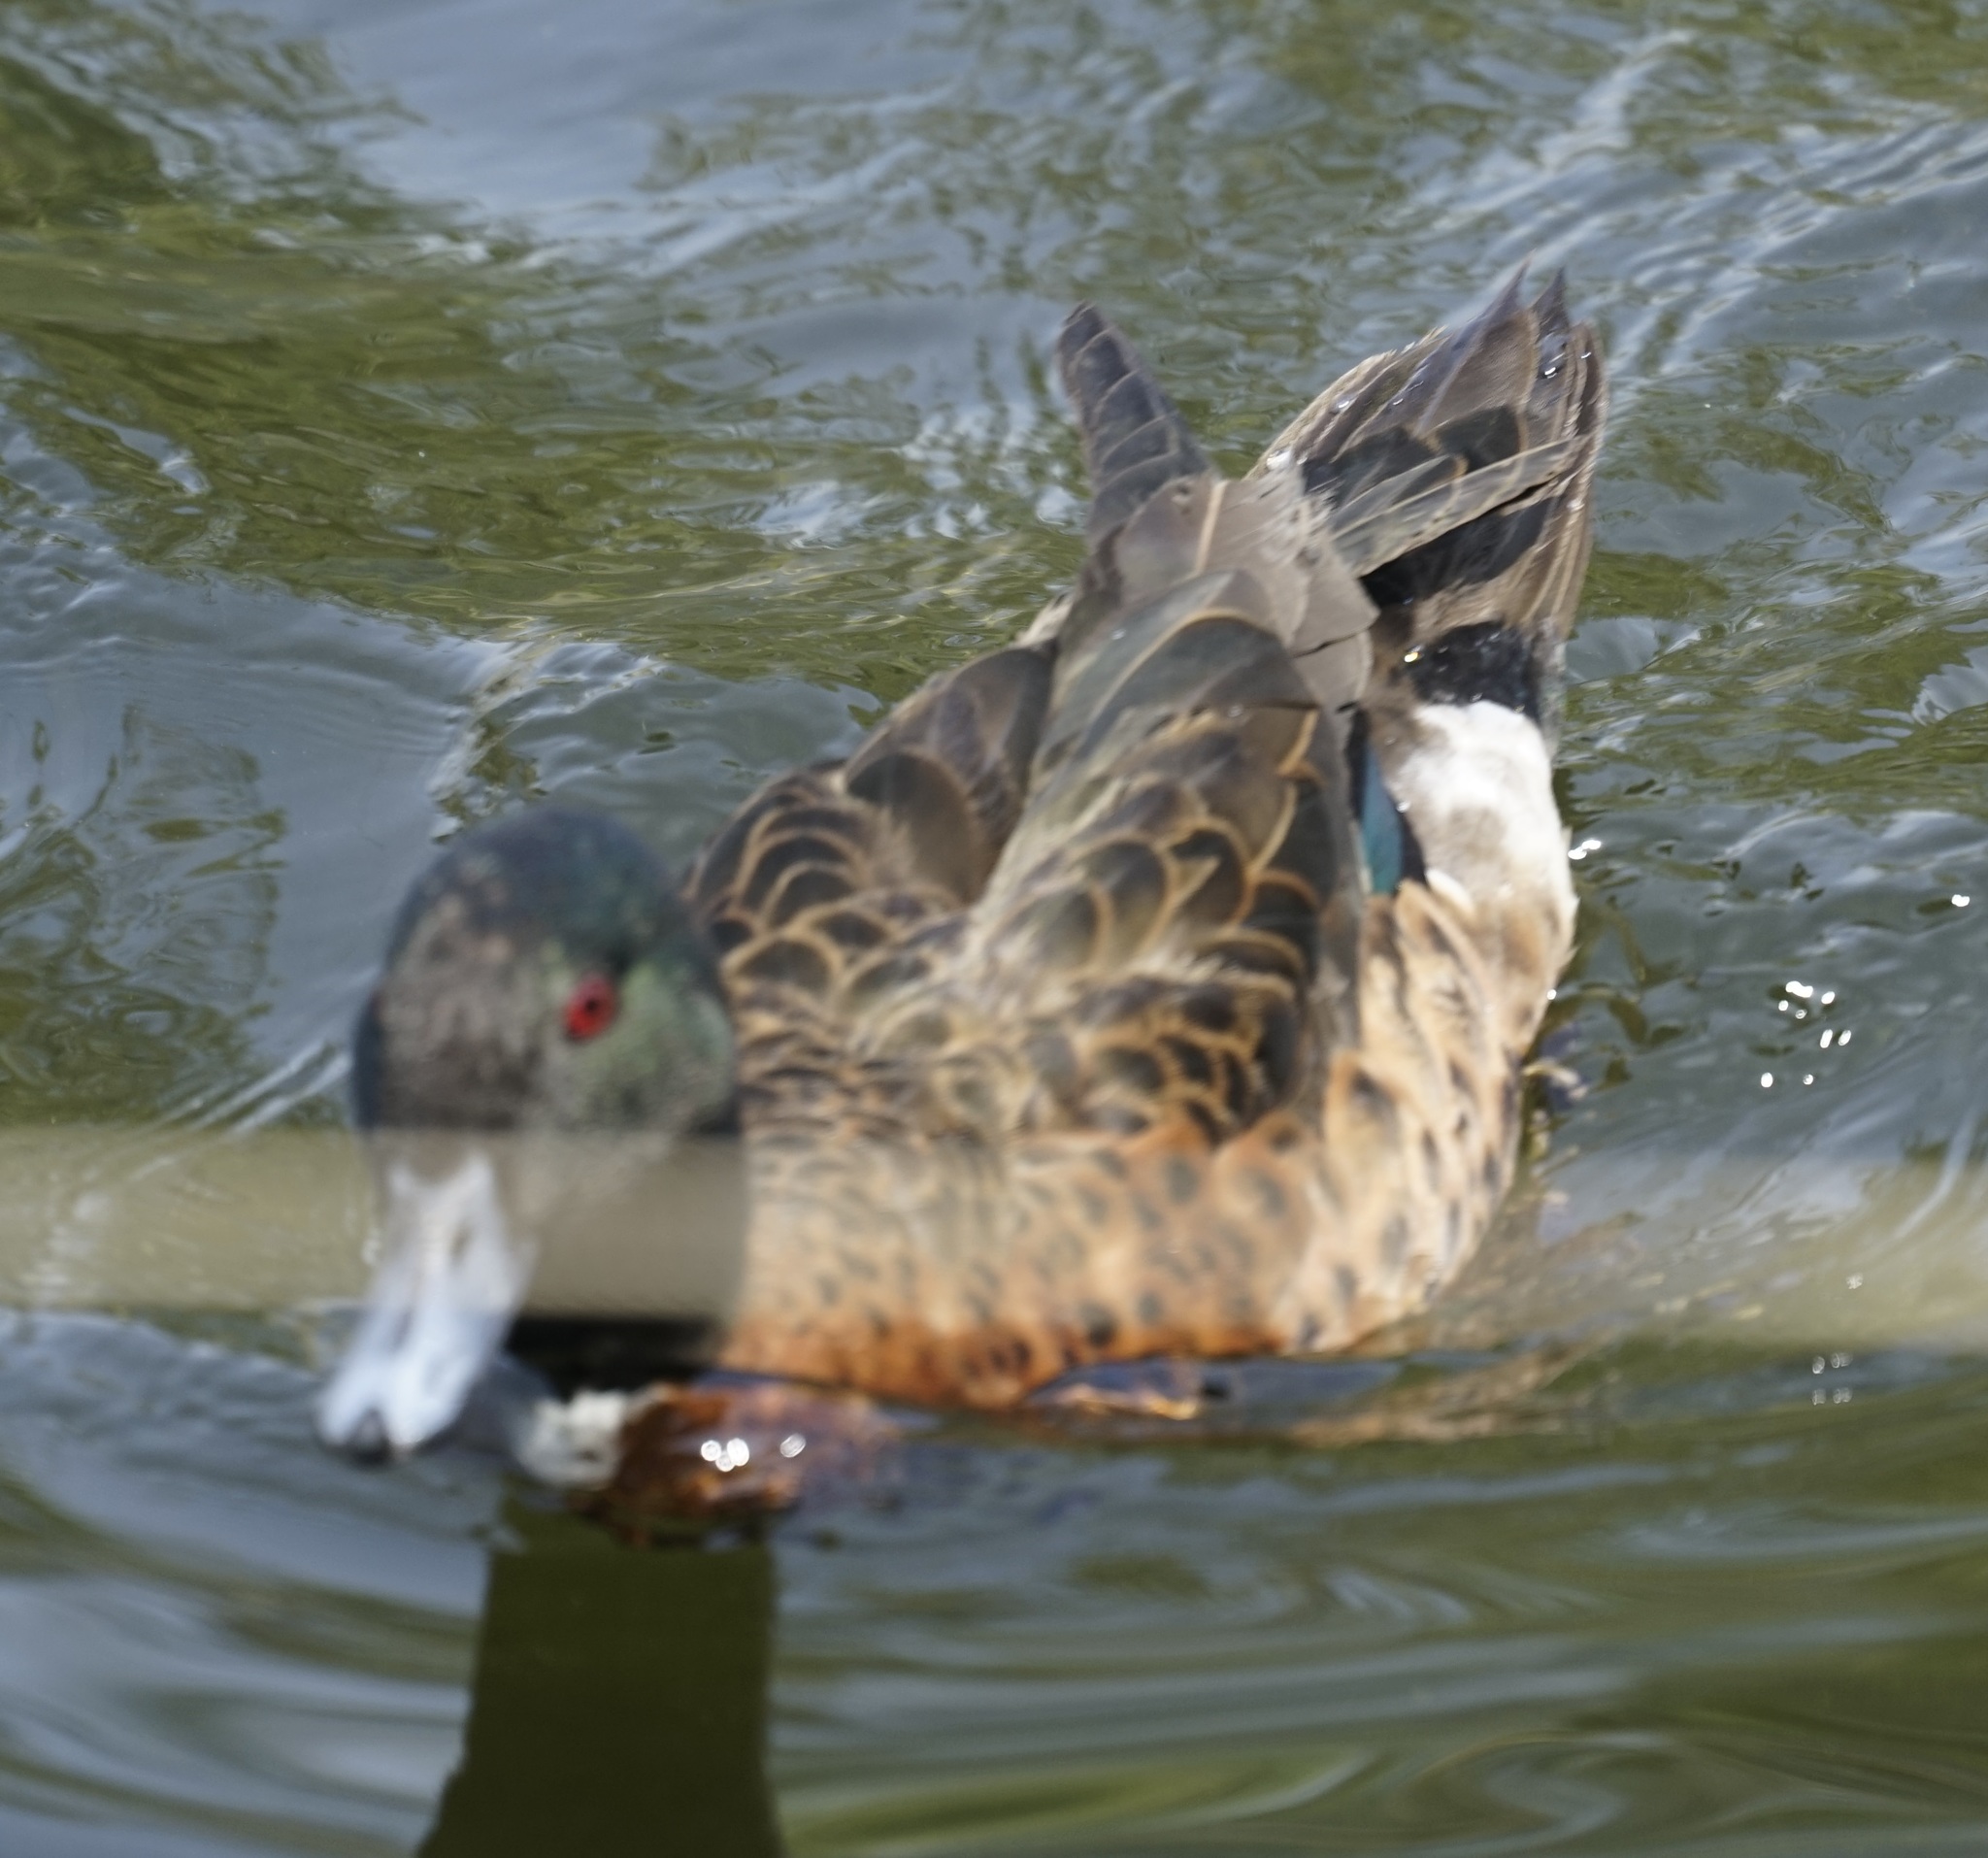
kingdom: Animalia
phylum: Chordata
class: Aves
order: Anseriformes
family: Anatidae
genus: Anas
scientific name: Anas castanea
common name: Chestnut teal
